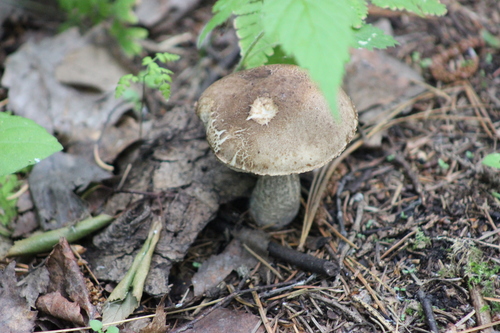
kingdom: Fungi
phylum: Basidiomycota
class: Agaricomycetes
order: Boletales
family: Boletaceae
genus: Leccinum
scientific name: Leccinum scabrum
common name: Blushing bolete
